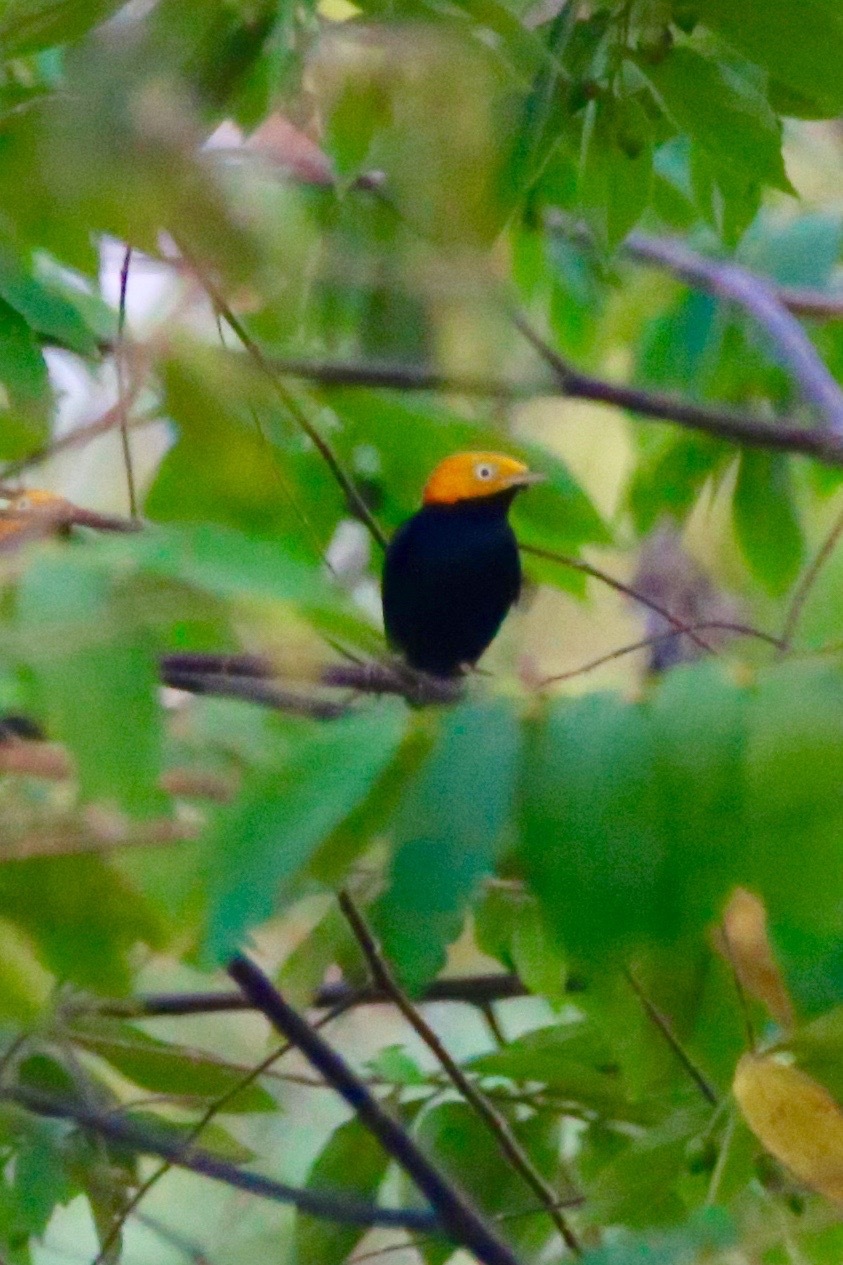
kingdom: Animalia
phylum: Chordata
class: Aves
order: Passeriformes
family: Pipridae
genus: Pipra
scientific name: Pipra erythrocephala
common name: Golden-headed manakin
